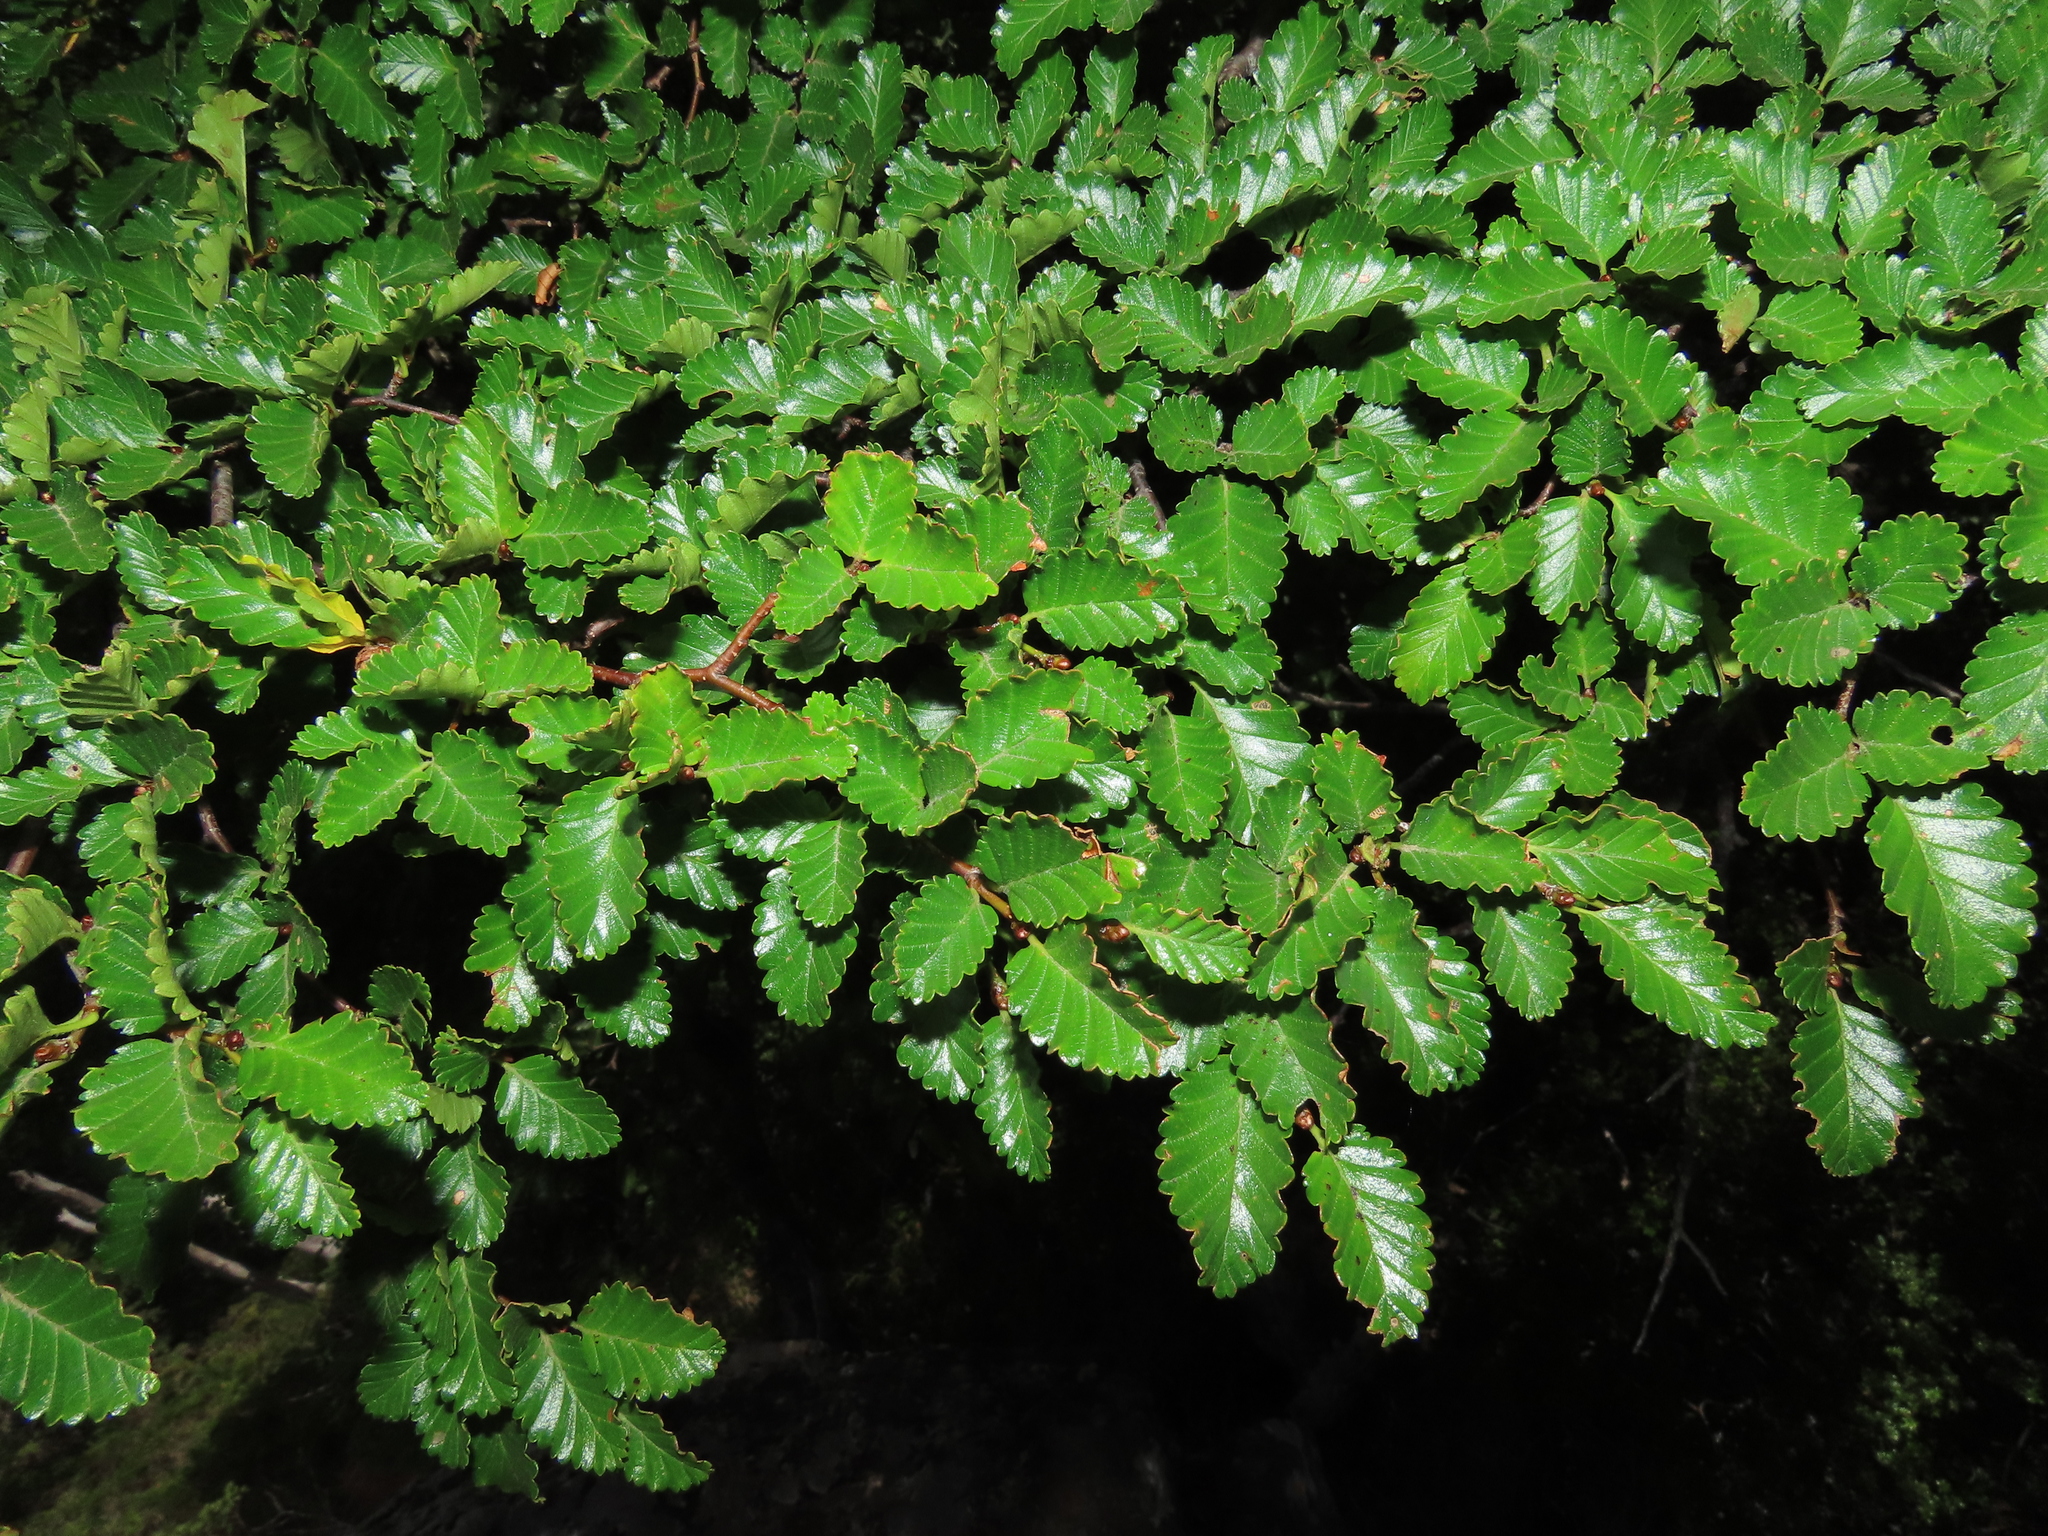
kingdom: Plantae
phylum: Tracheophyta
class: Magnoliopsida
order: Fagales
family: Nothofagaceae
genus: Nothofagus
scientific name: Nothofagus pumilio
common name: Lenga beech
